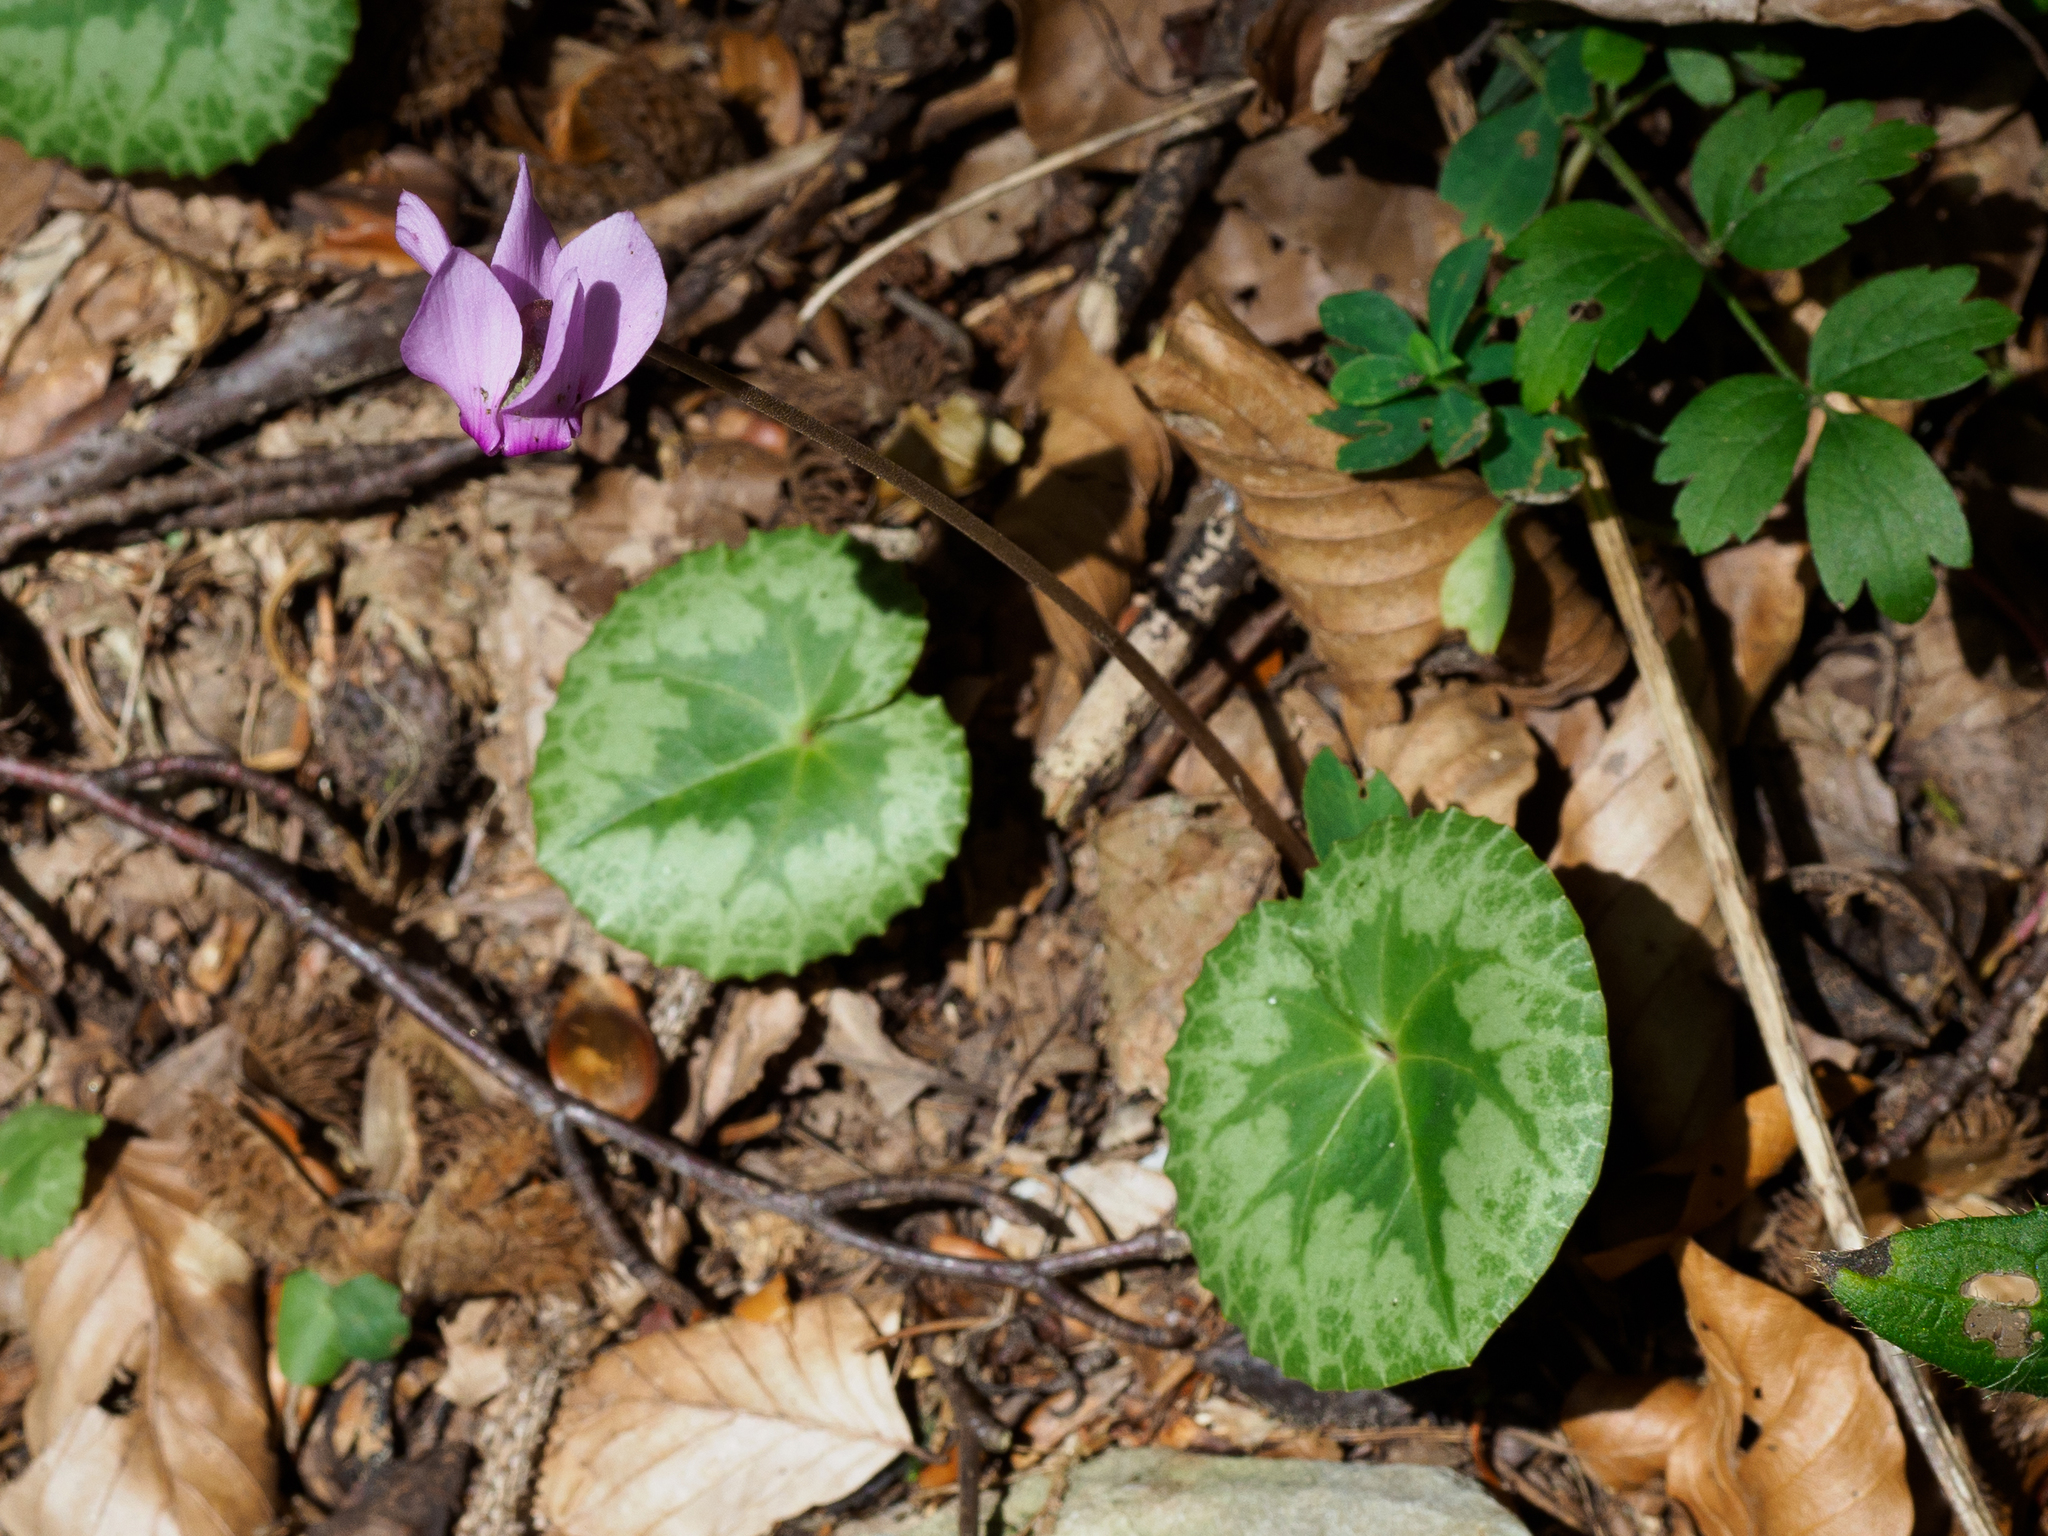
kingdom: Plantae
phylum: Tracheophyta
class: Magnoliopsida
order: Ericales
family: Primulaceae
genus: Cyclamen
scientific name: Cyclamen purpurascens
